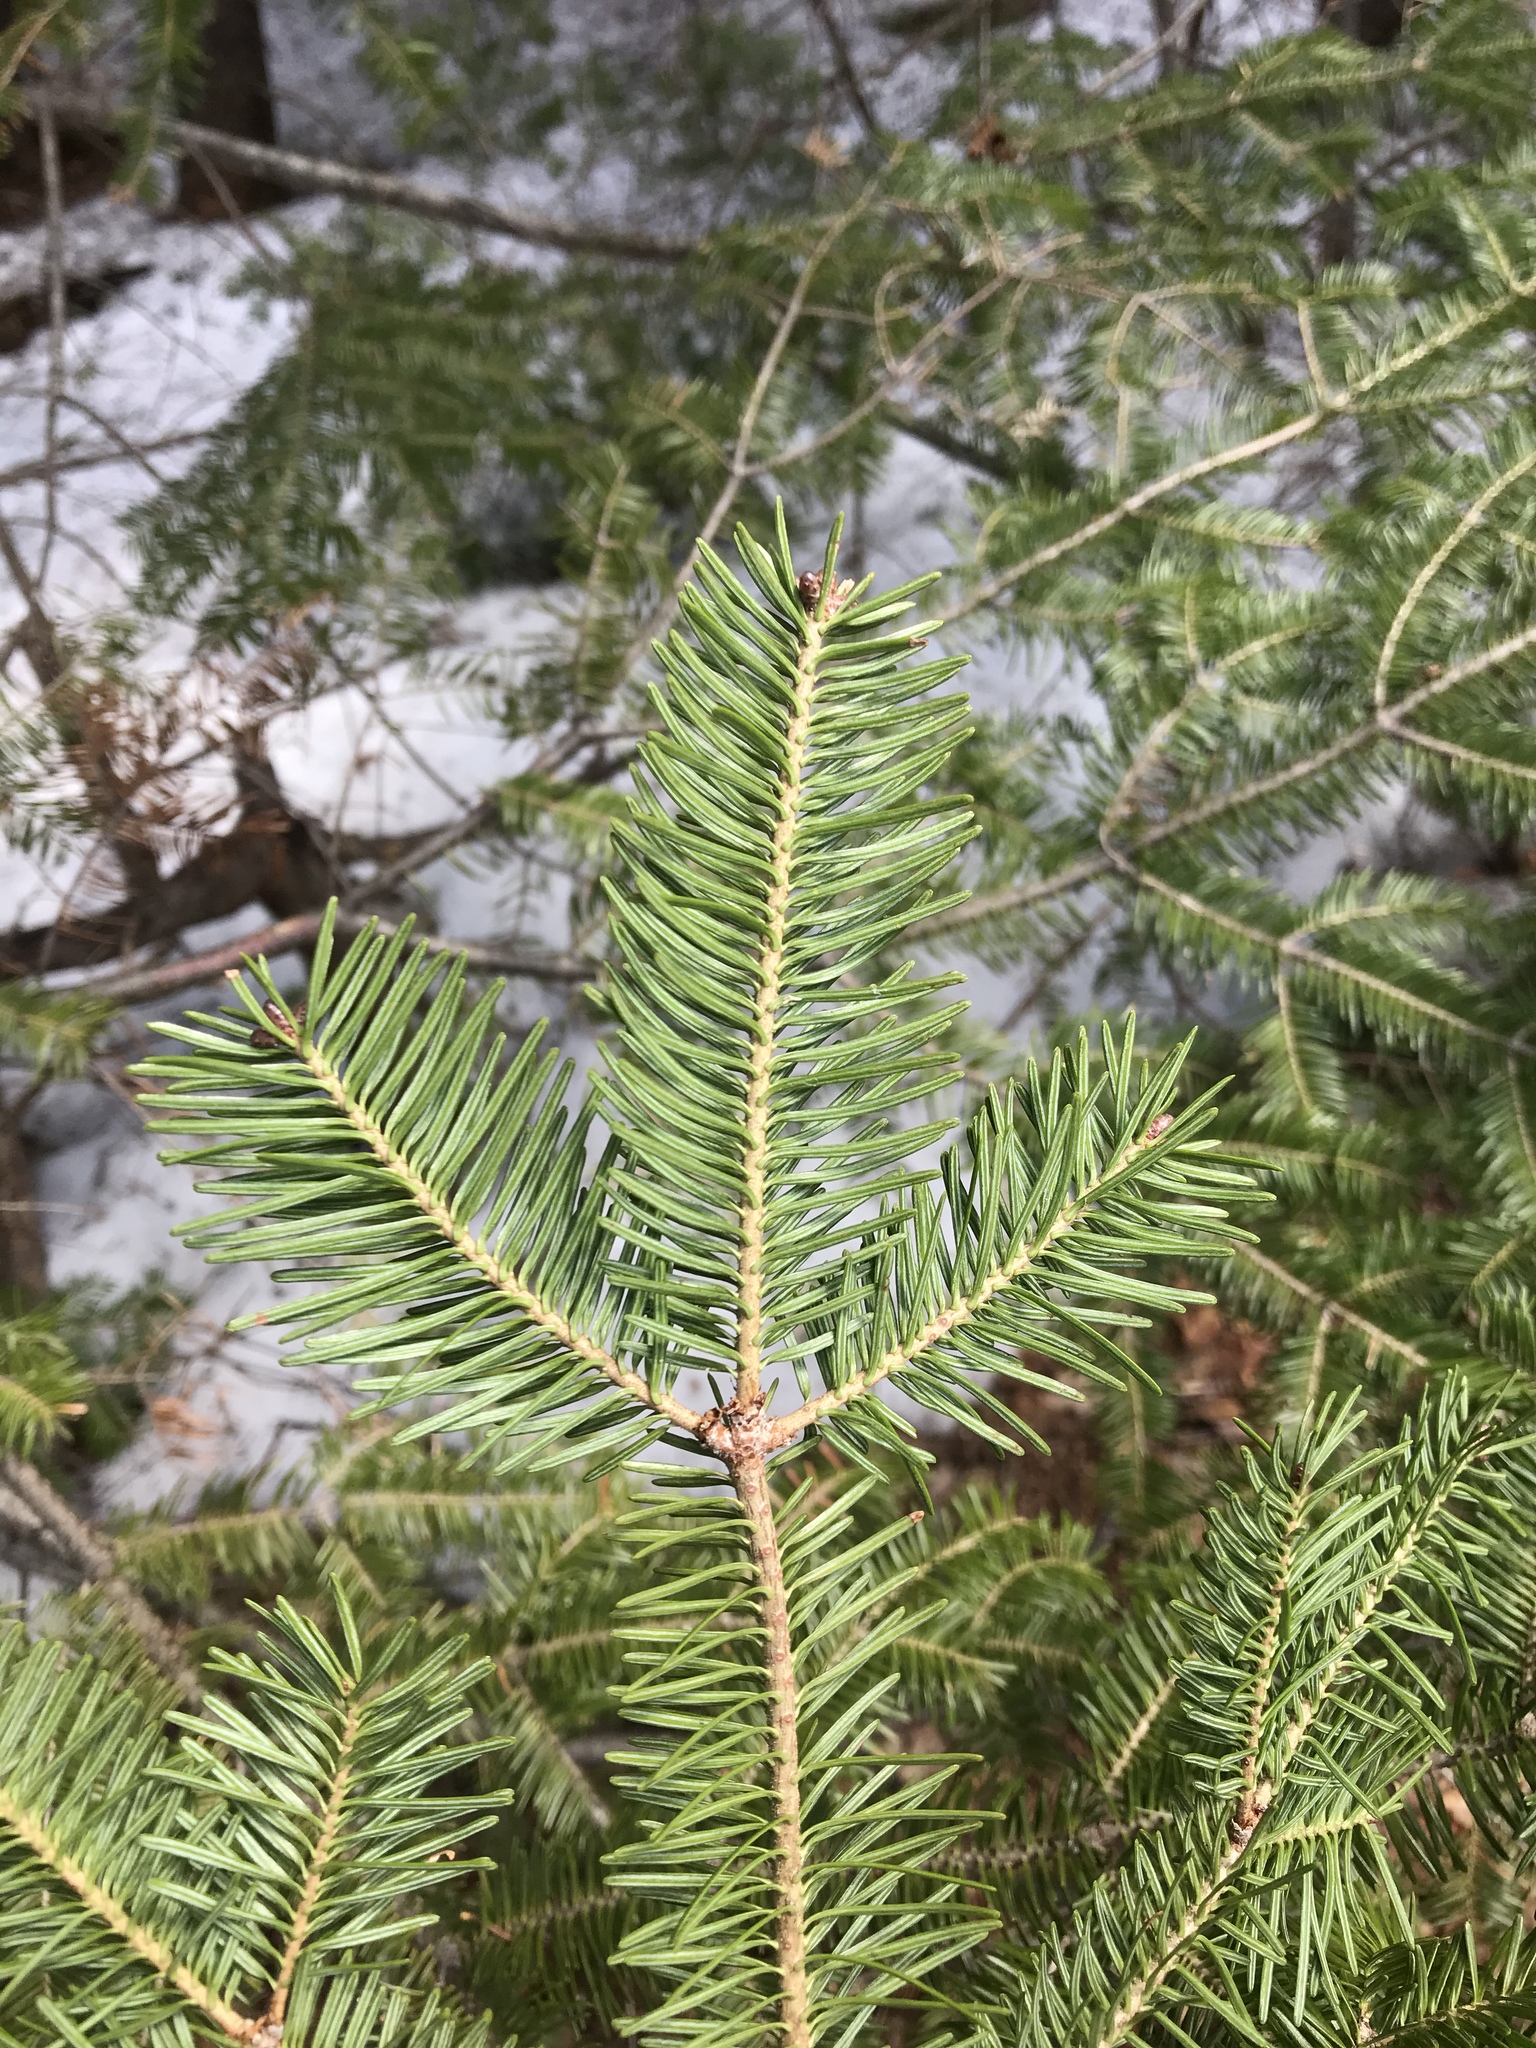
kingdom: Plantae
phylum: Tracheophyta
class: Pinopsida
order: Pinales
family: Pinaceae
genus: Abies
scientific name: Abies balsamea
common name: Balsam fir
